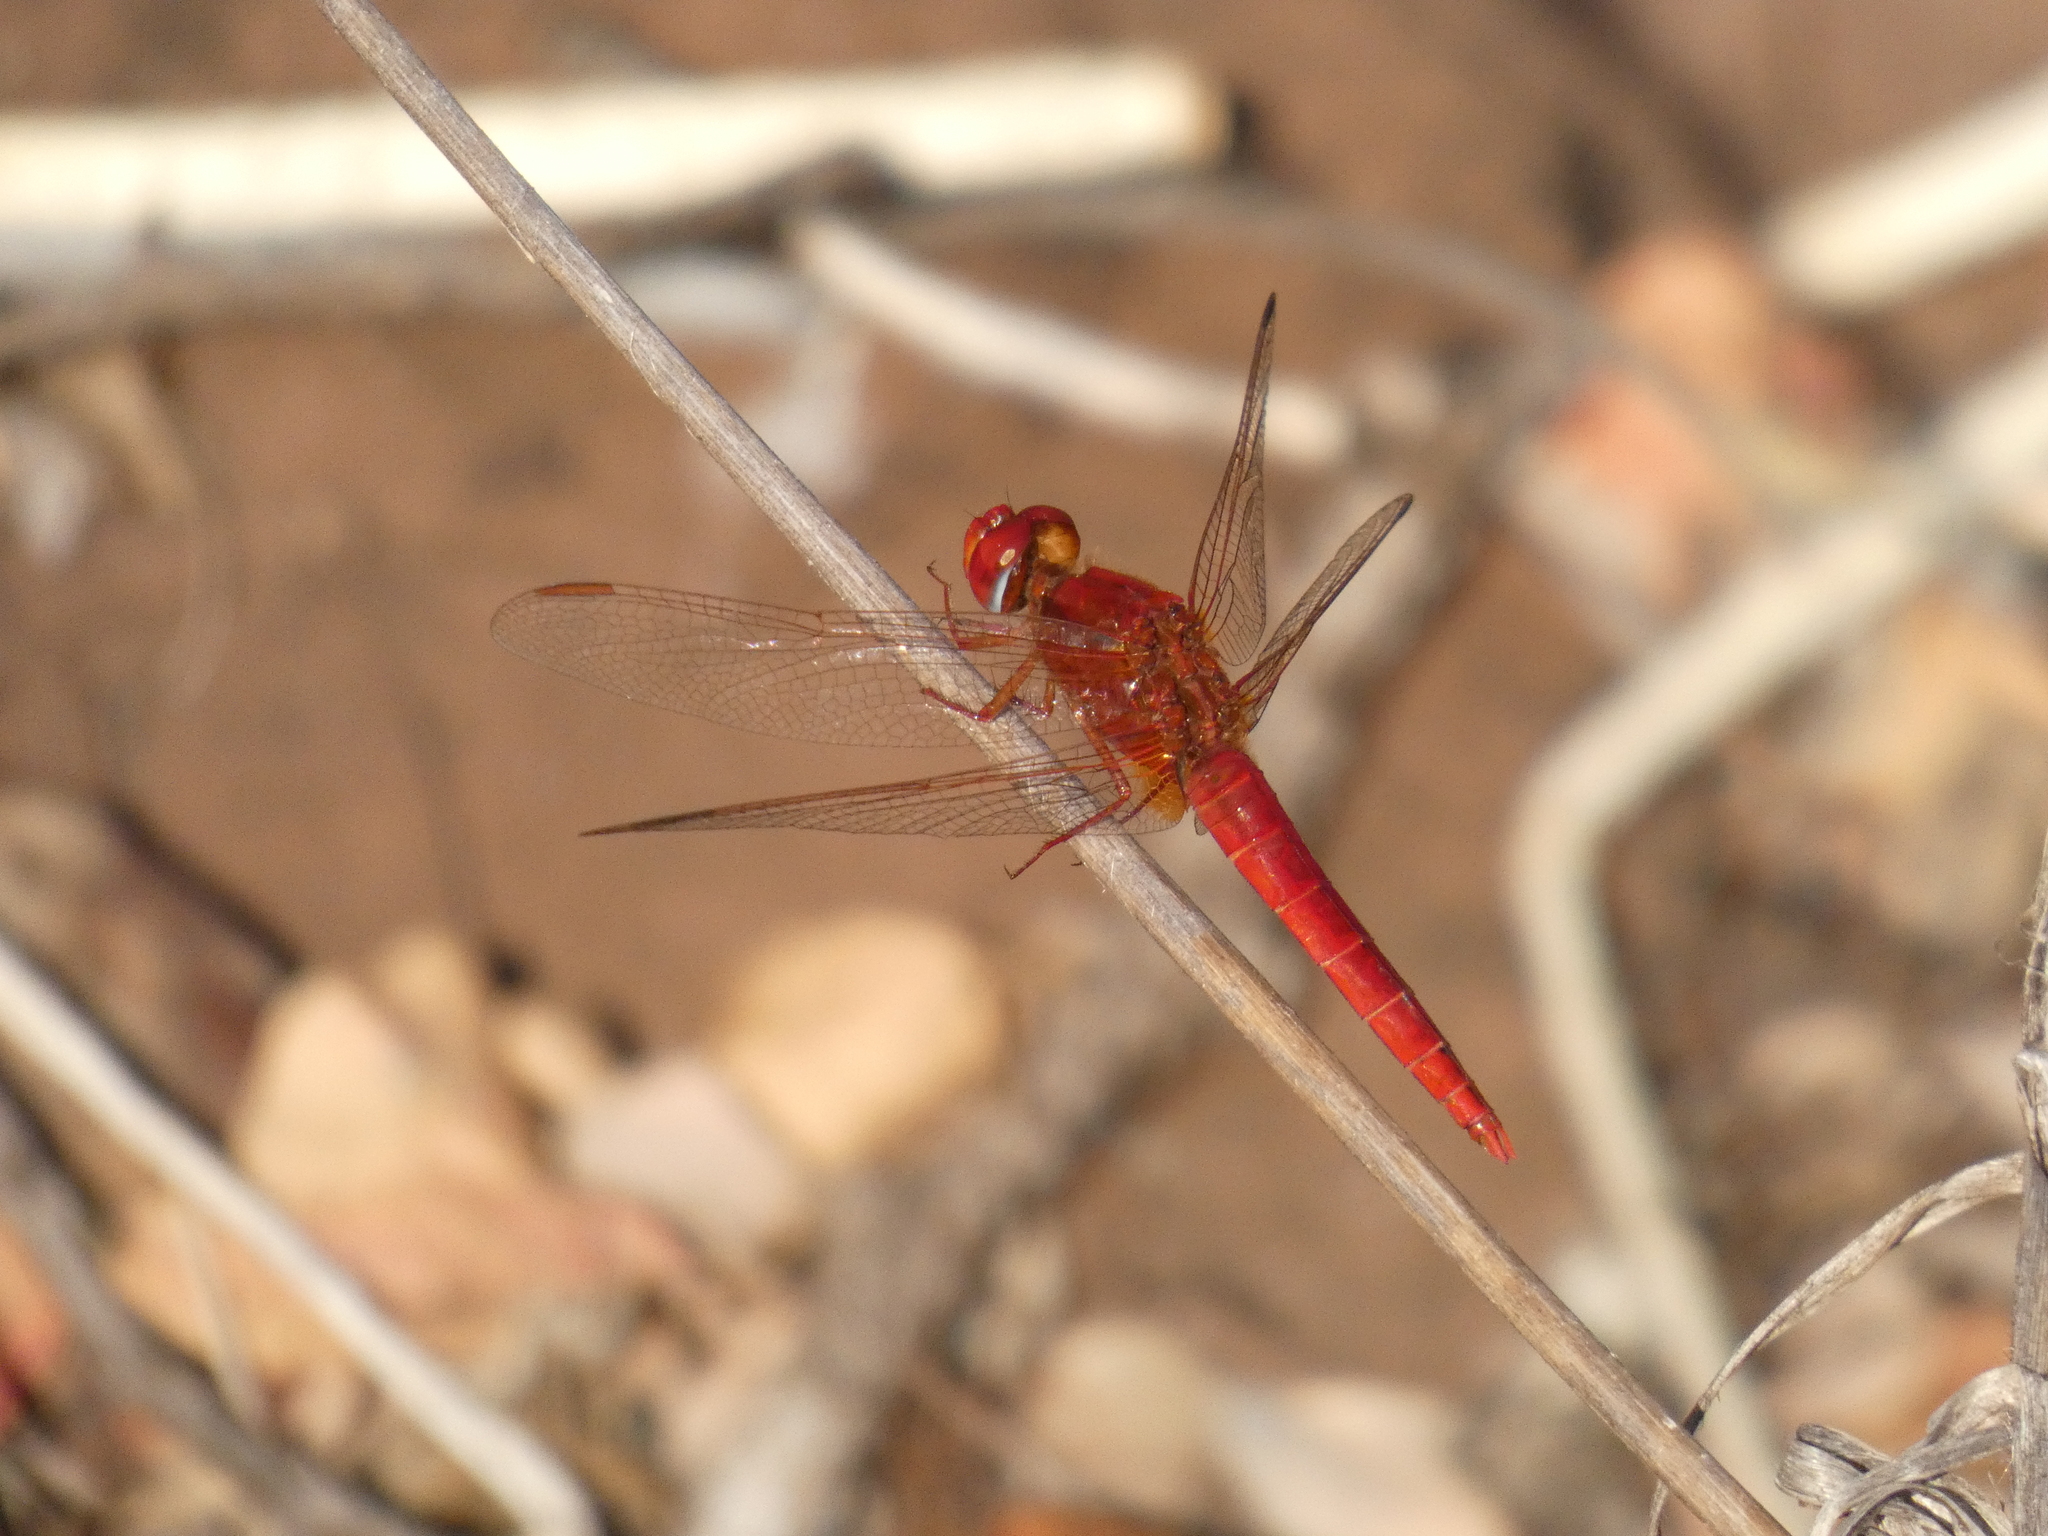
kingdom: Animalia
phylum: Arthropoda
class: Insecta
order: Odonata
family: Libellulidae
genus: Crocothemis
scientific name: Crocothemis erythraea
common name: Scarlet dragonfly
